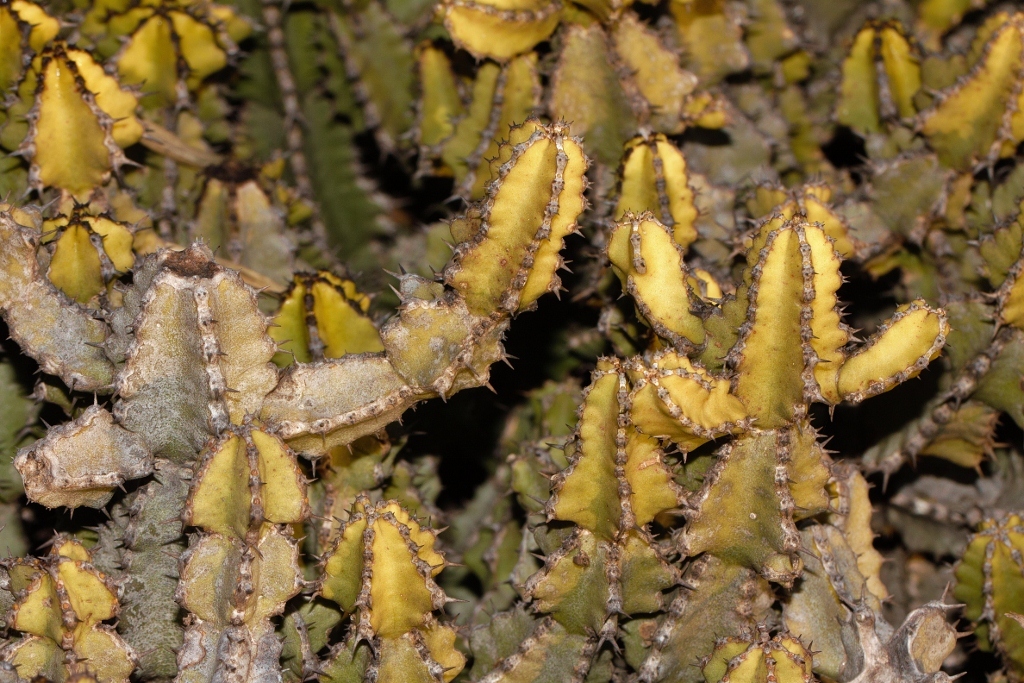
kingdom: Plantae
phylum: Tracheophyta
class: Magnoliopsida
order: Malpighiales
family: Euphorbiaceae
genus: Euphorbia
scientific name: Euphorbia memoralis
